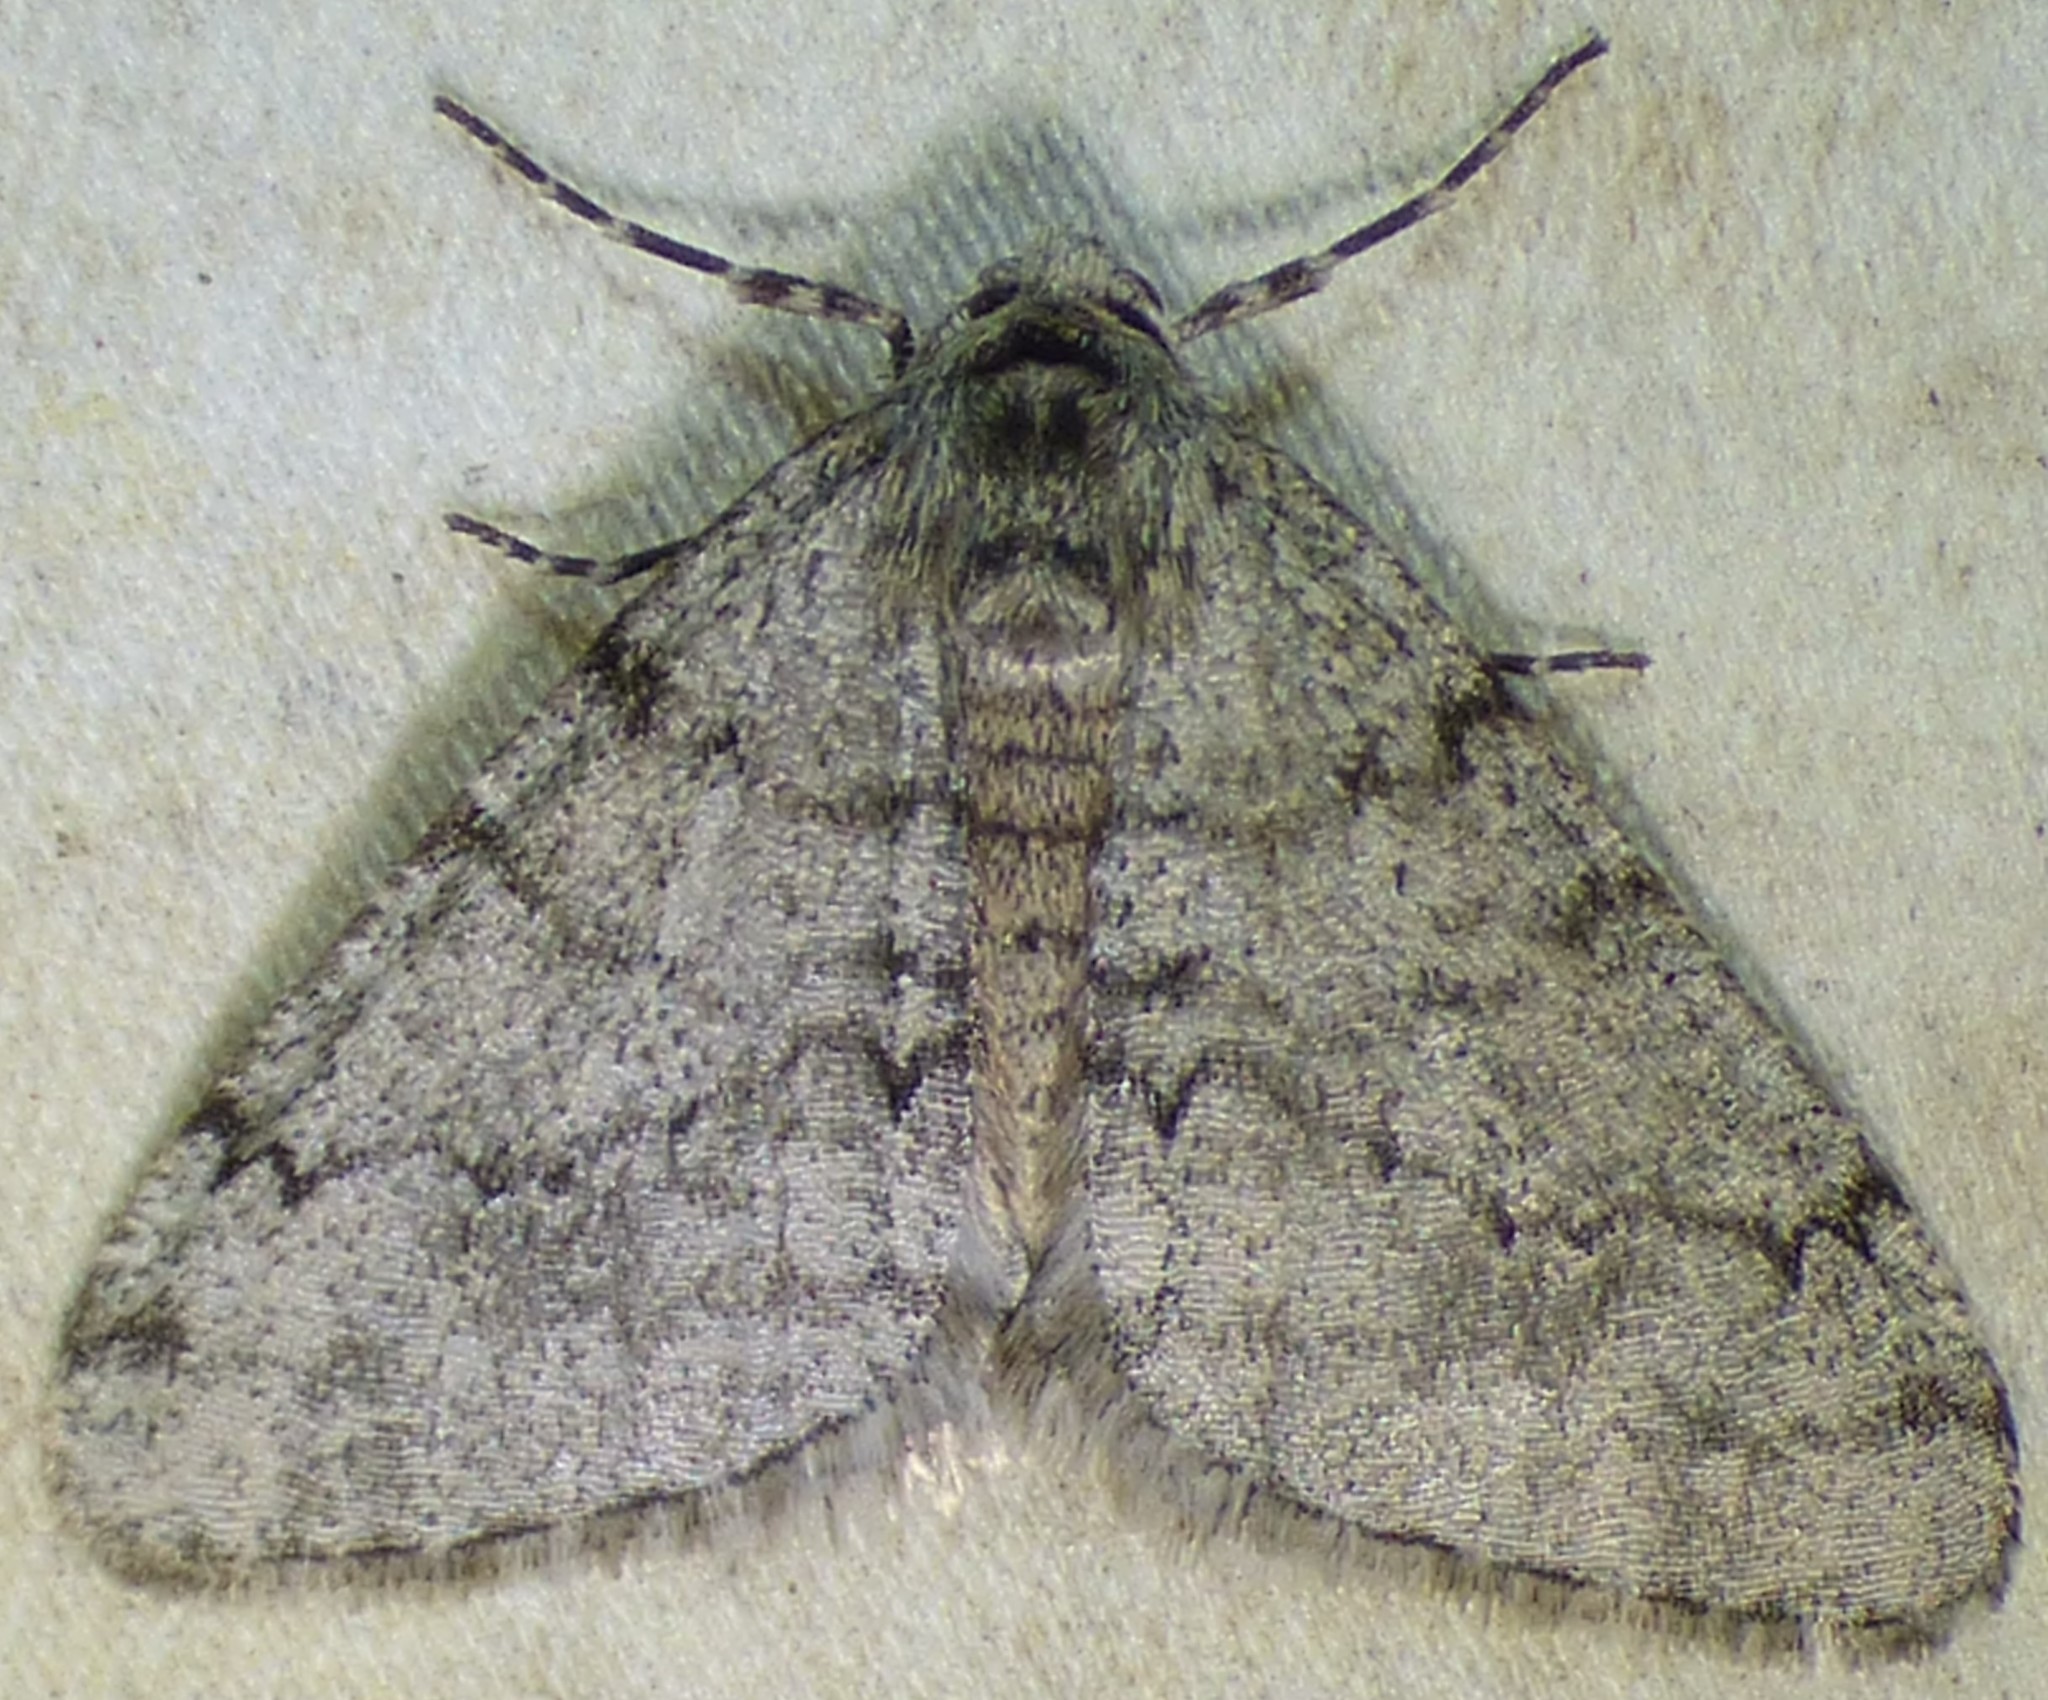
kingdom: Animalia
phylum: Arthropoda
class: Insecta
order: Lepidoptera
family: Geometridae
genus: Phigalia
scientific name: Phigalia strigataria
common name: Small phigalia
